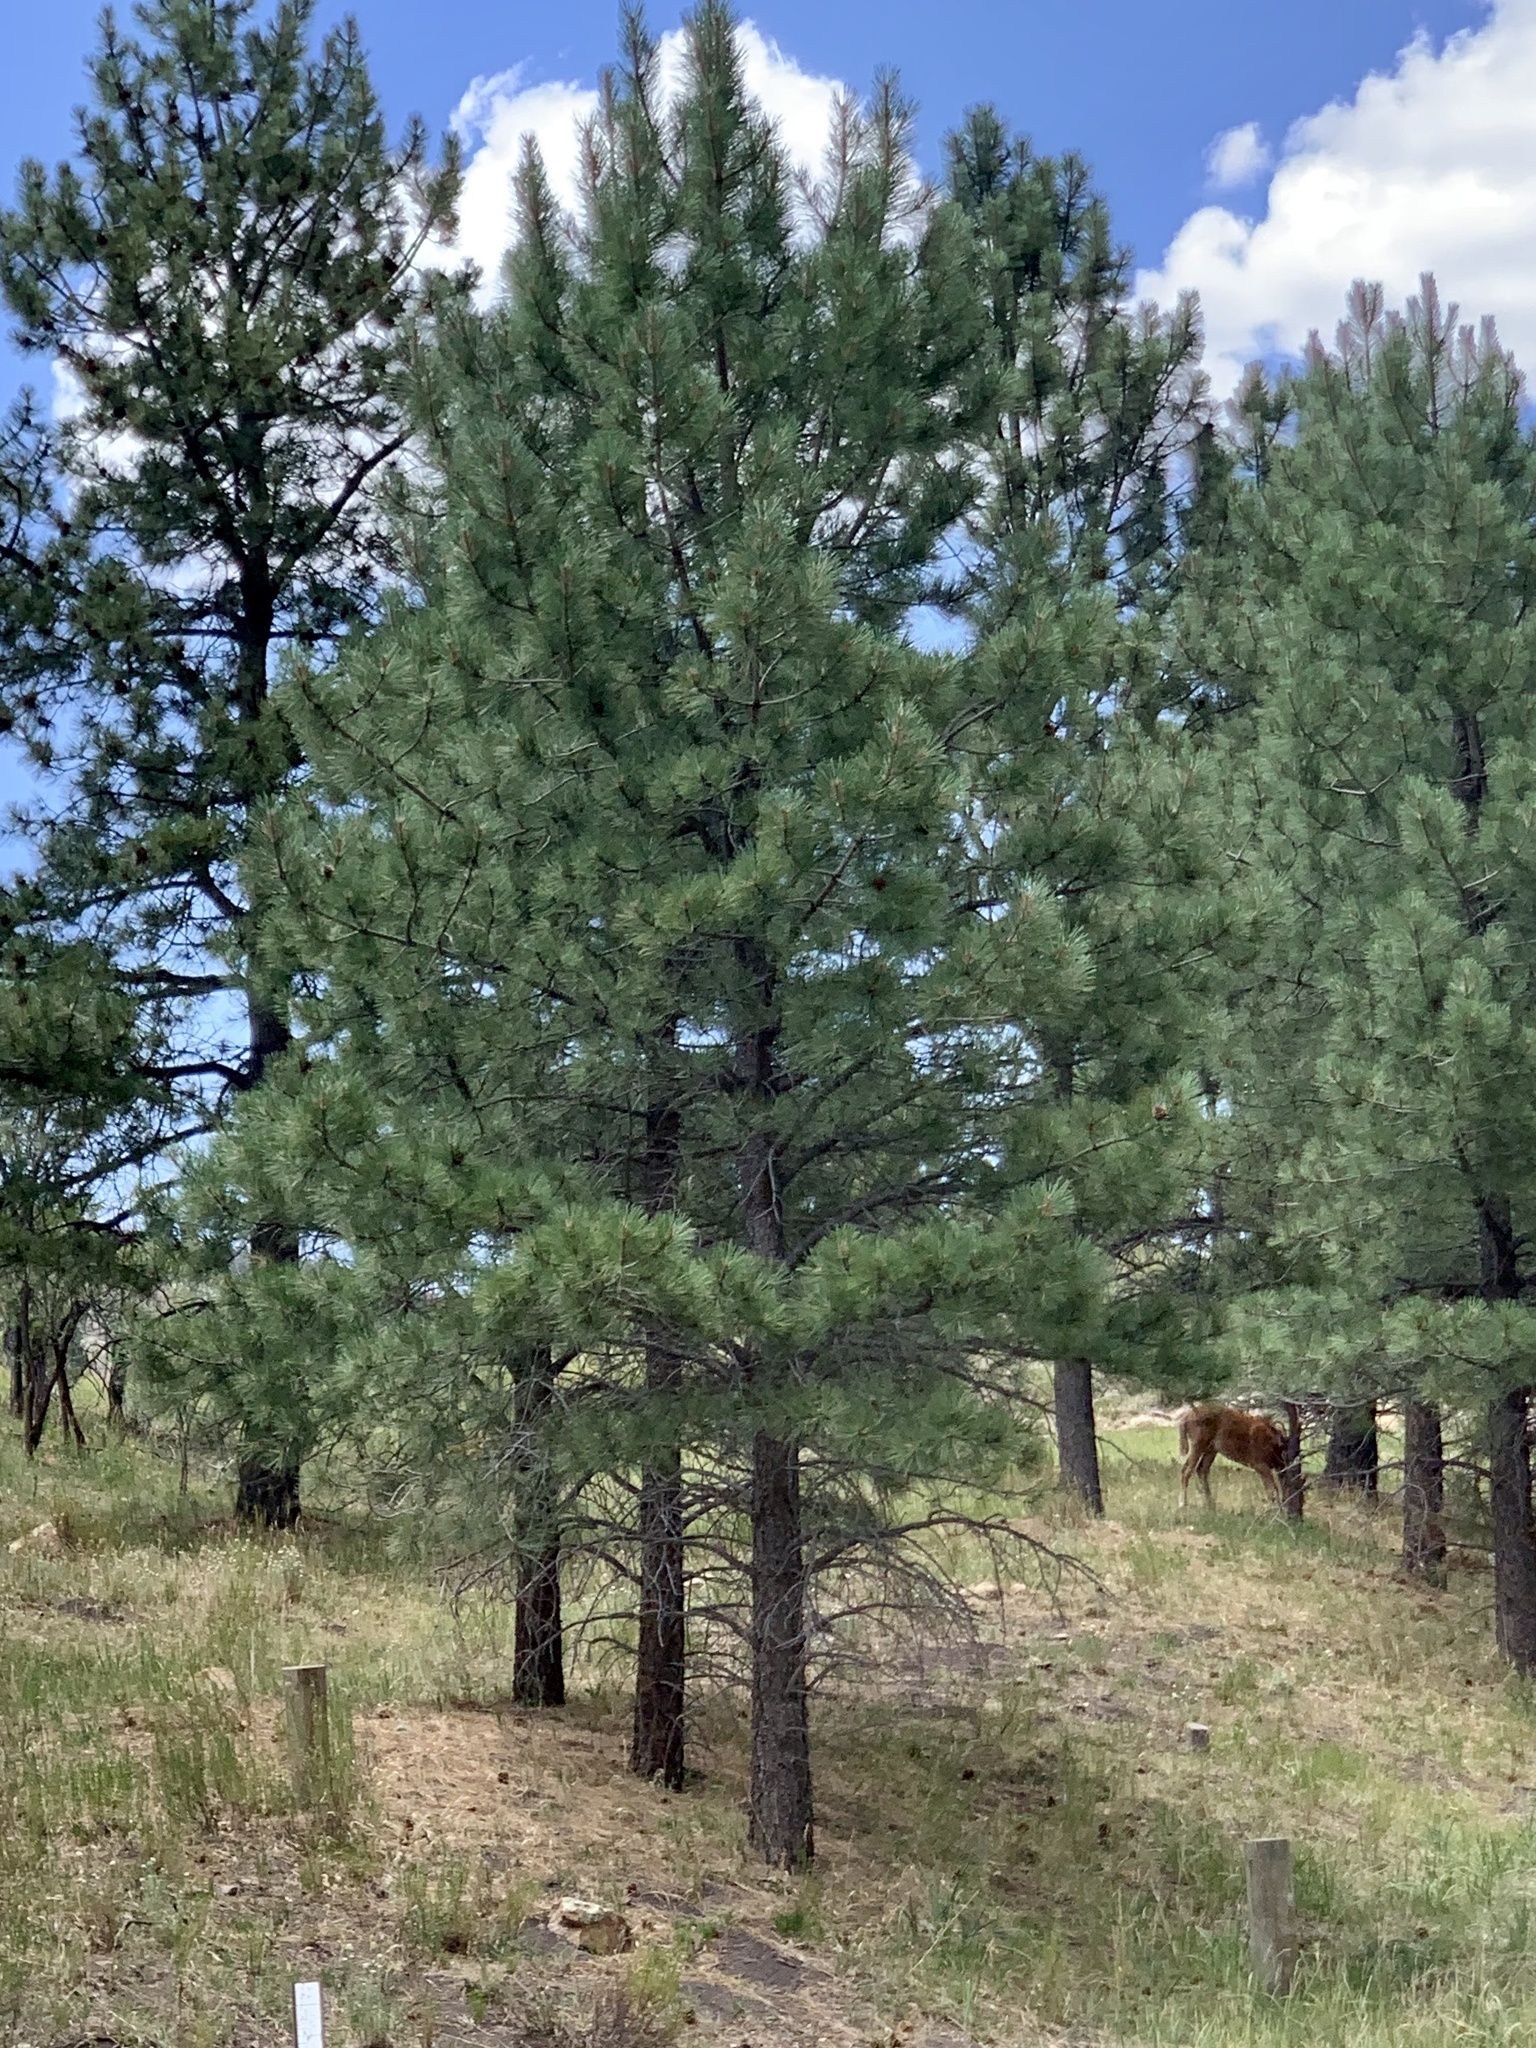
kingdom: Plantae
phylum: Tracheophyta
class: Pinopsida
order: Pinales
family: Pinaceae
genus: Pinus
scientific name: Pinus ponderosa
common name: Western yellow-pine
